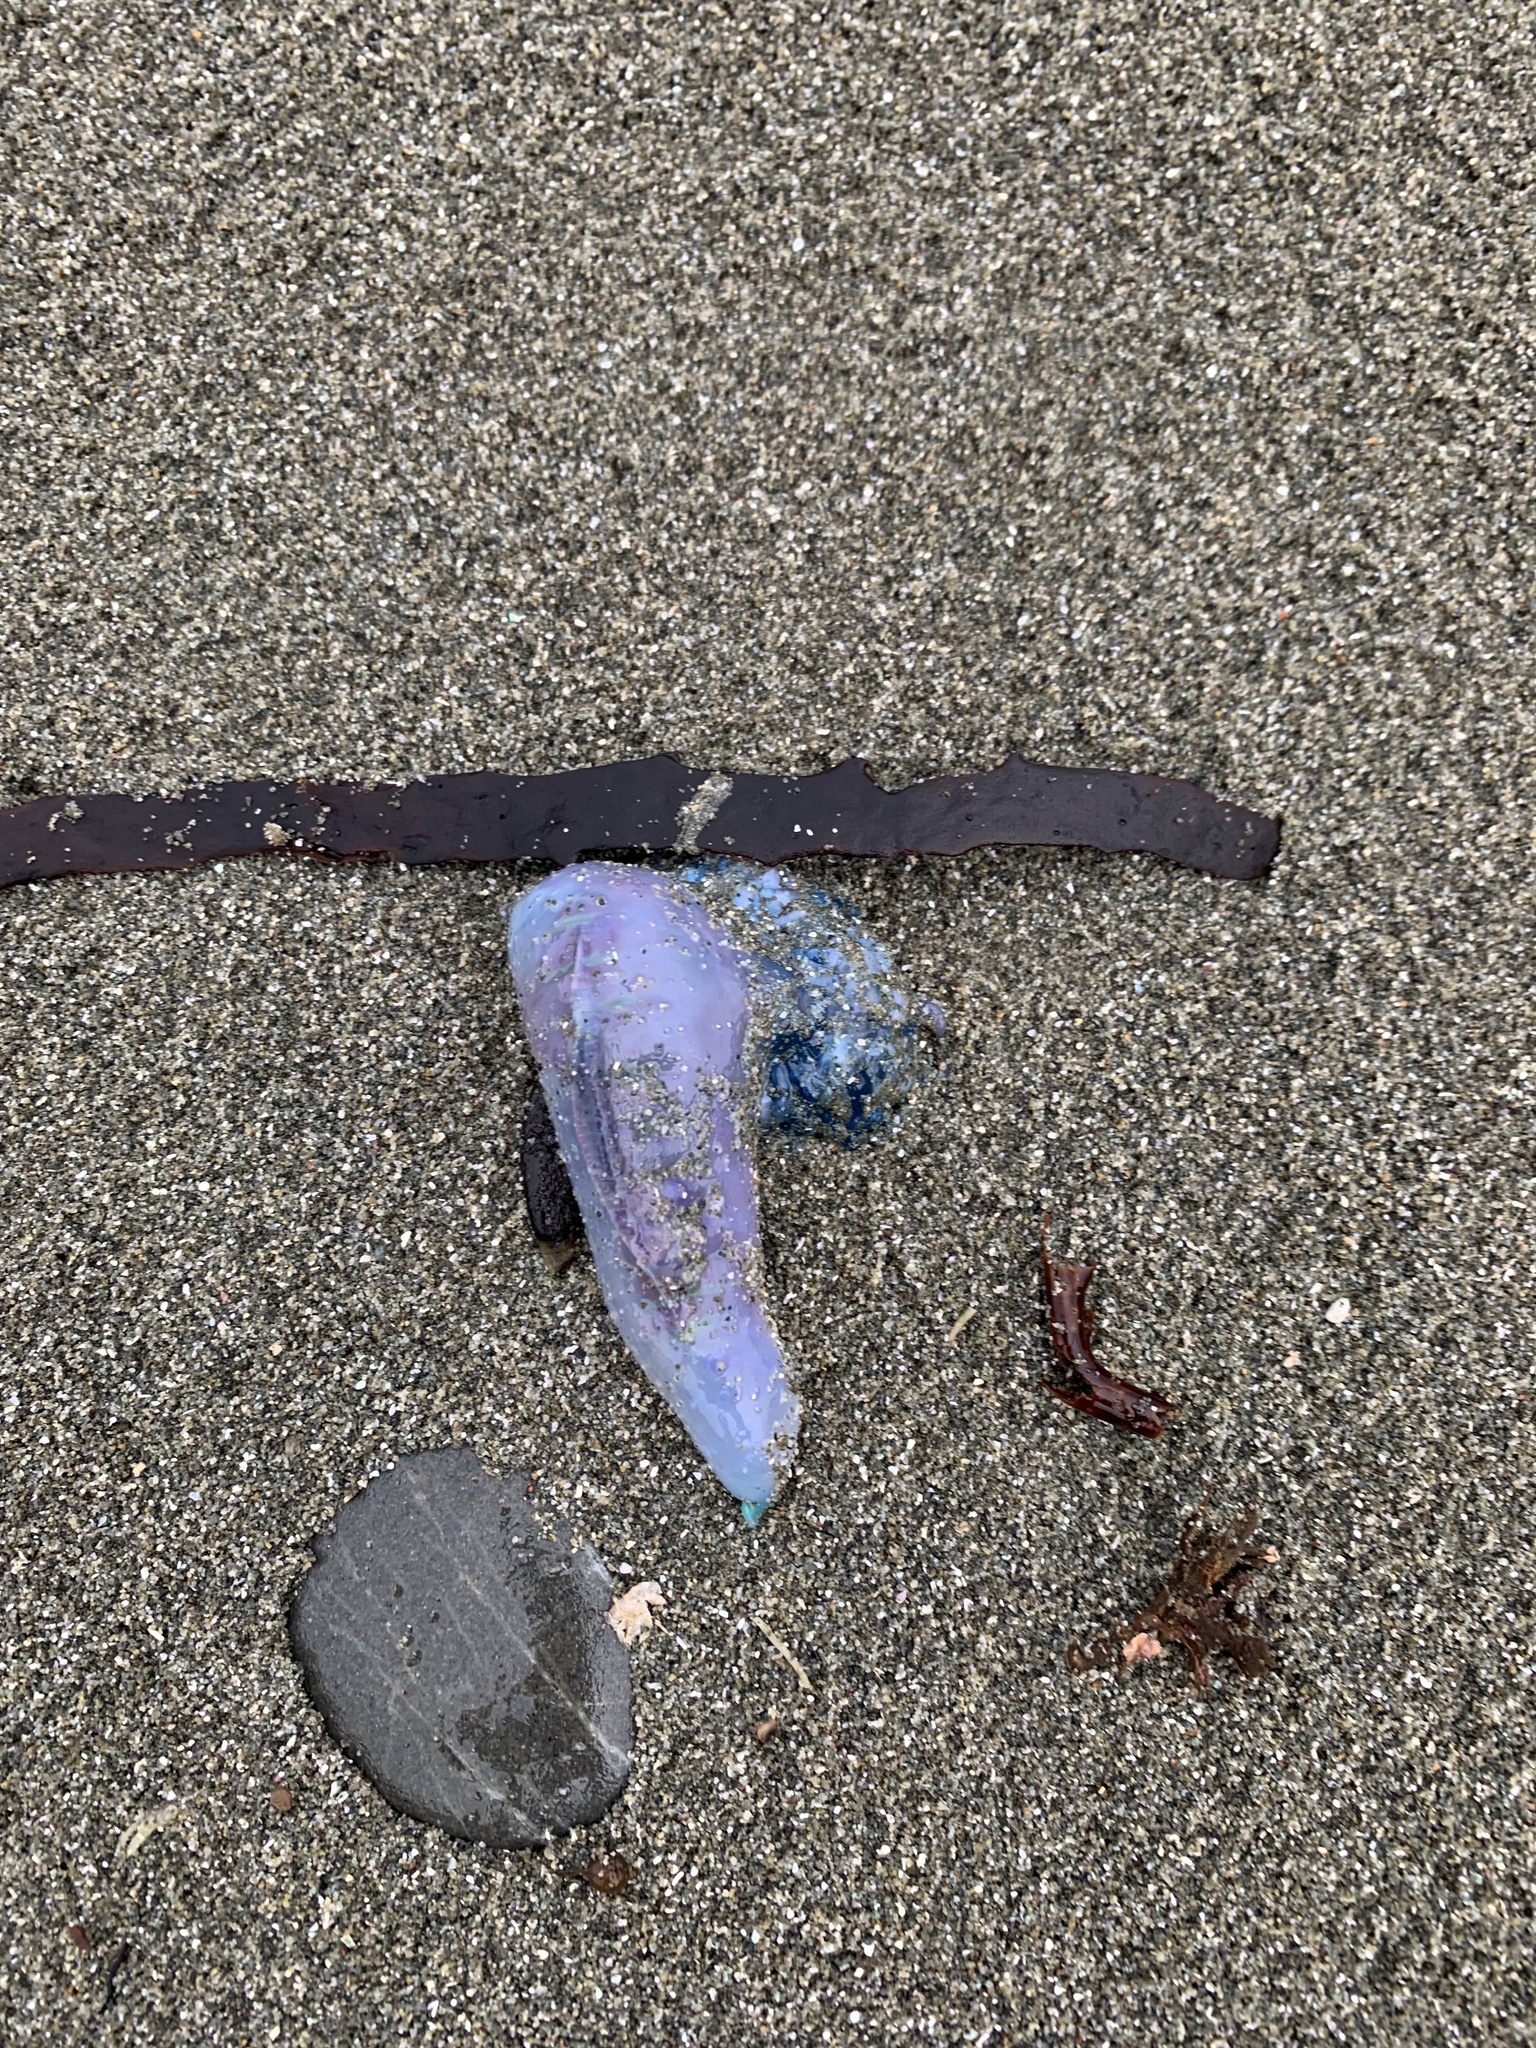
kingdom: Animalia
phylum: Cnidaria
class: Hydrozoa
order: Siphonophorae
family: Physaliidae
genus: Physalia
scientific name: Physalia physalis
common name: Portuguese man-of-war
